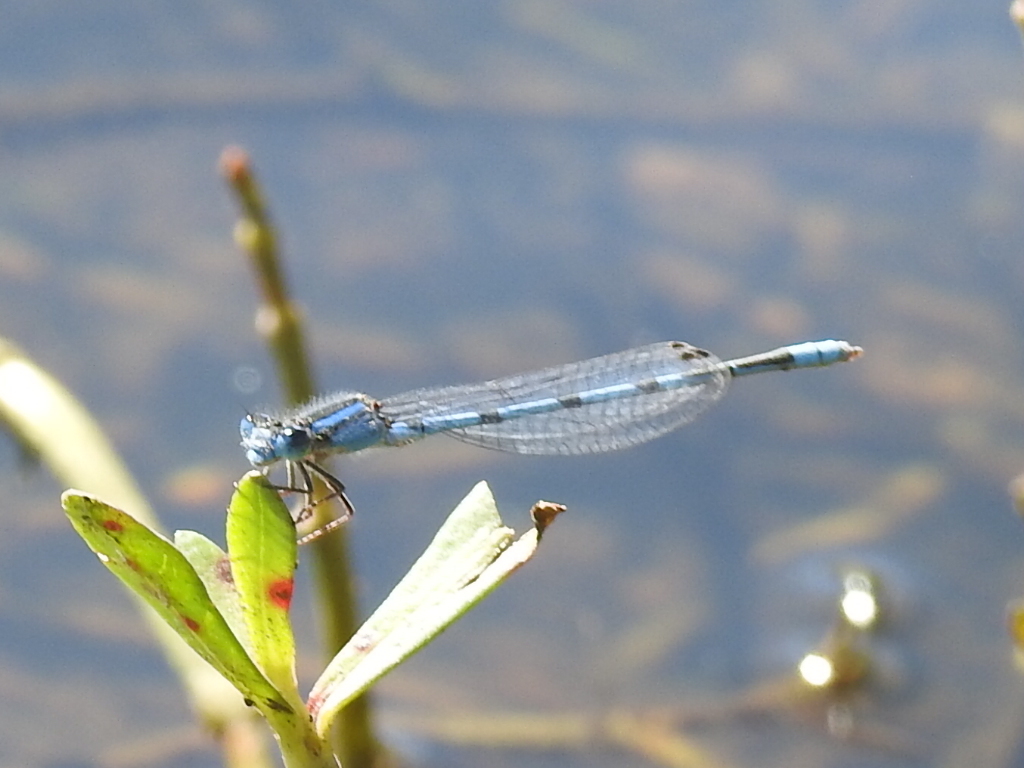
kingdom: Animalia
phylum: Arthropoda
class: Insecta
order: Odonata
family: Coenagrionidae
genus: Enallagma
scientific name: Enallagma civile
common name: Damselfly
